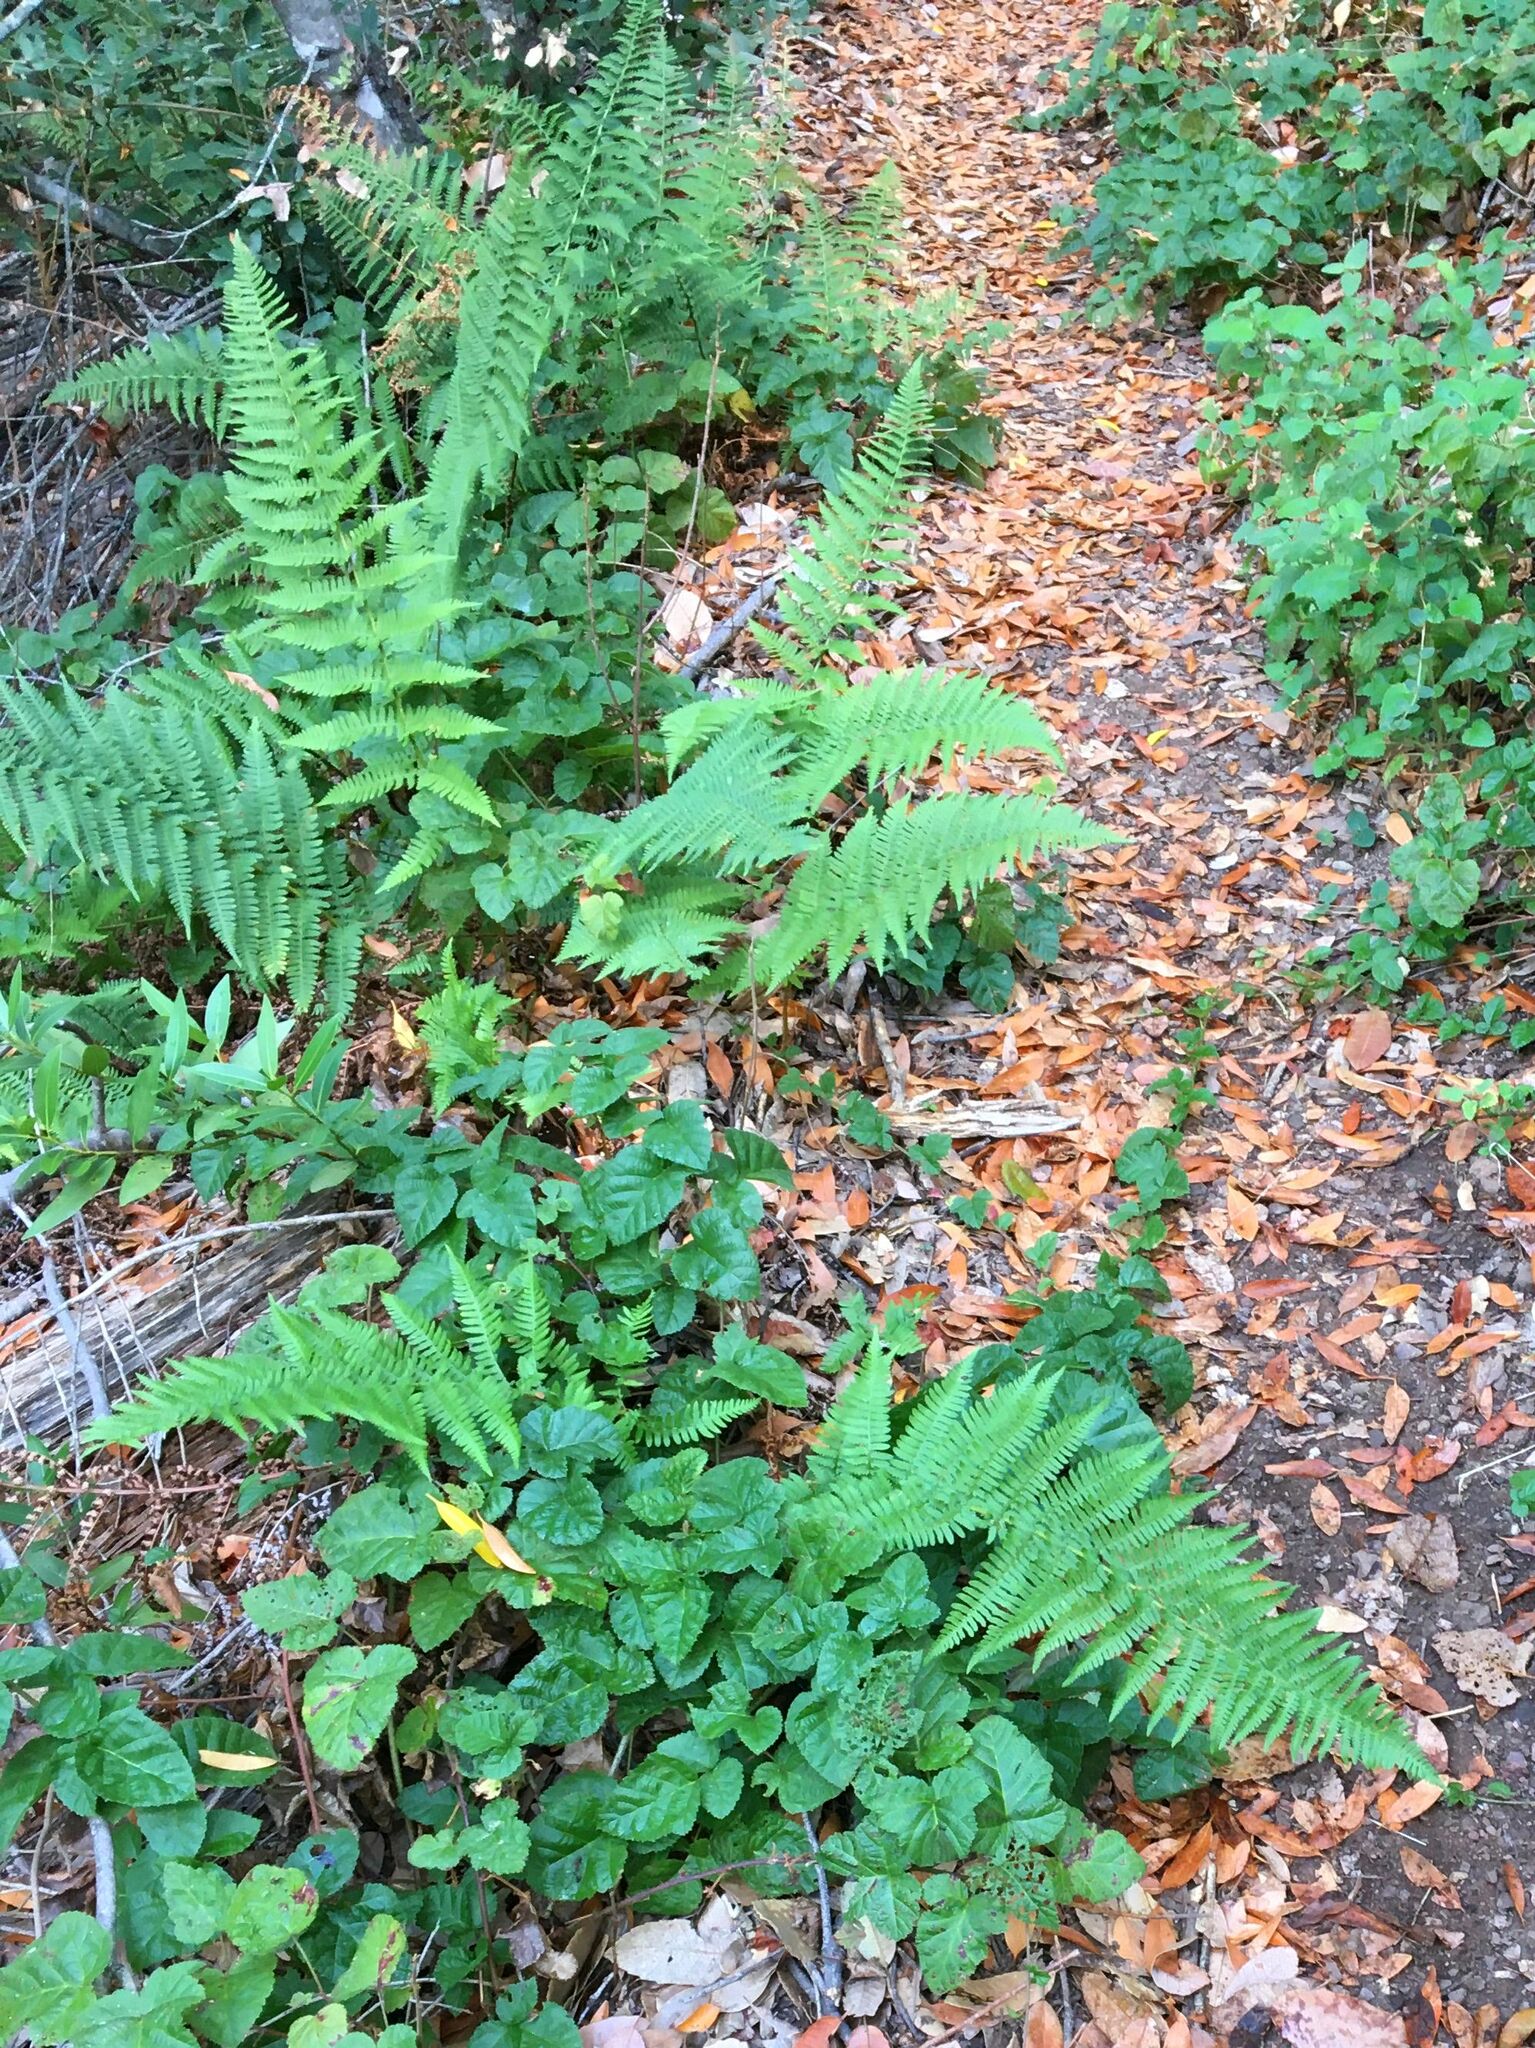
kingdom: Plantae
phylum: Tracheophyta
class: Polypodiopsida
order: Polypodiales
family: Dryopteridaceae
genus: Dryopteris
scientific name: Dryopteris arguta
